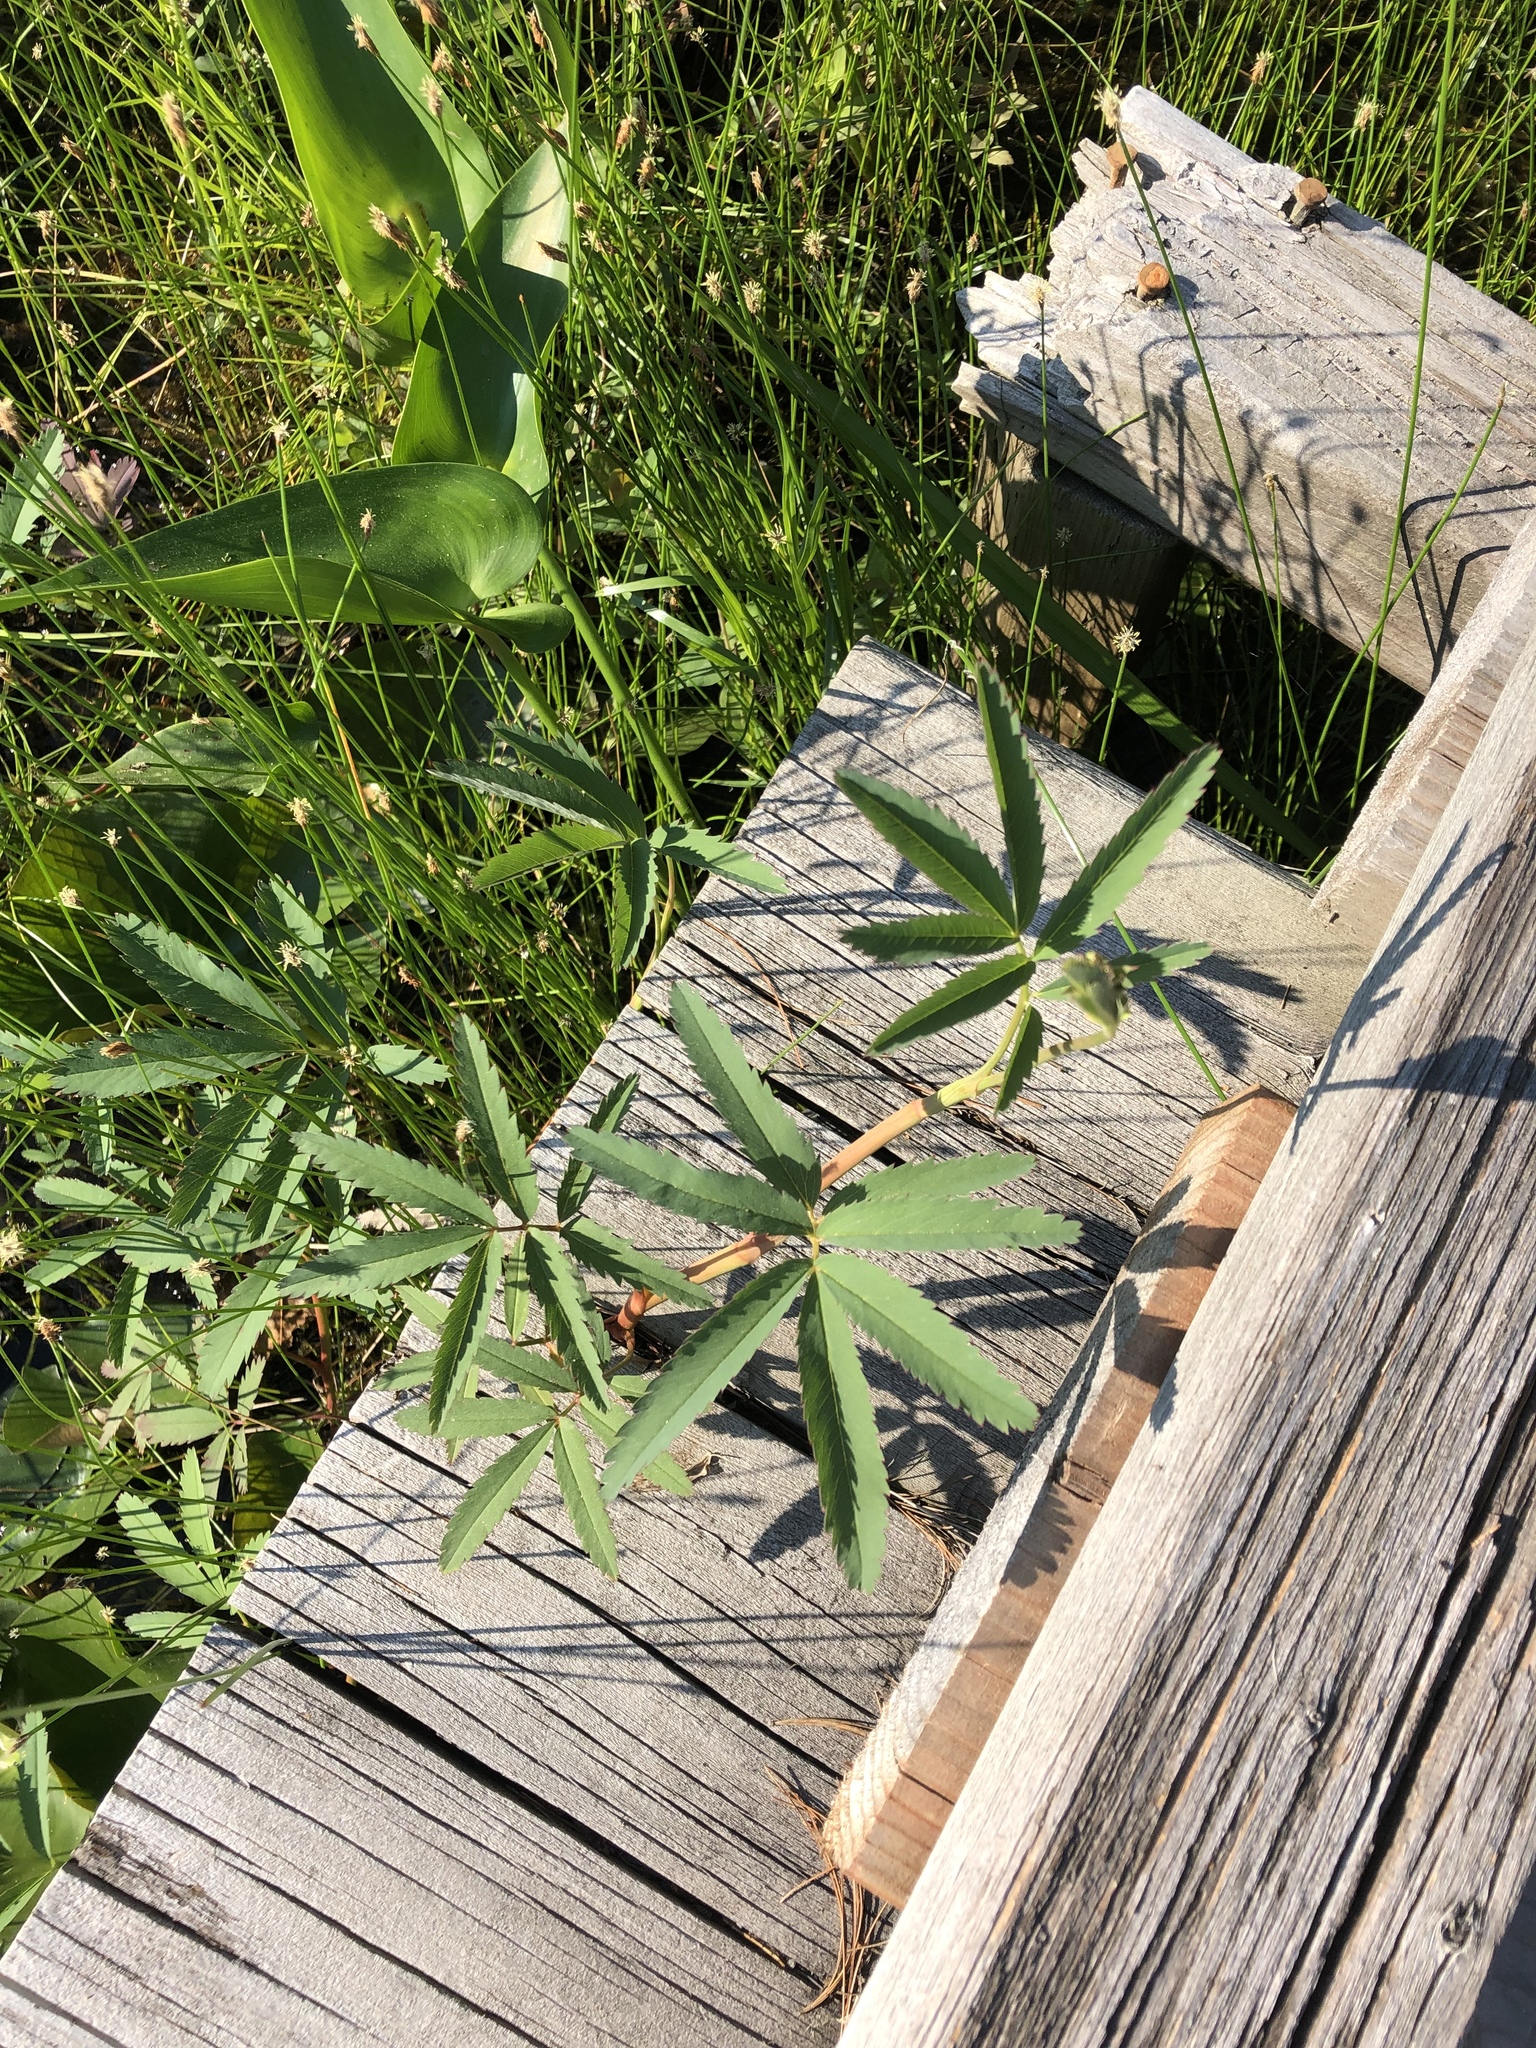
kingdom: Plantae
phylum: Tracheophyta
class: Magnoliopsida
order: Rosales
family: Rosaceae
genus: Comarum
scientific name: Comarum palustre
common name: Marsh cinquefoil
